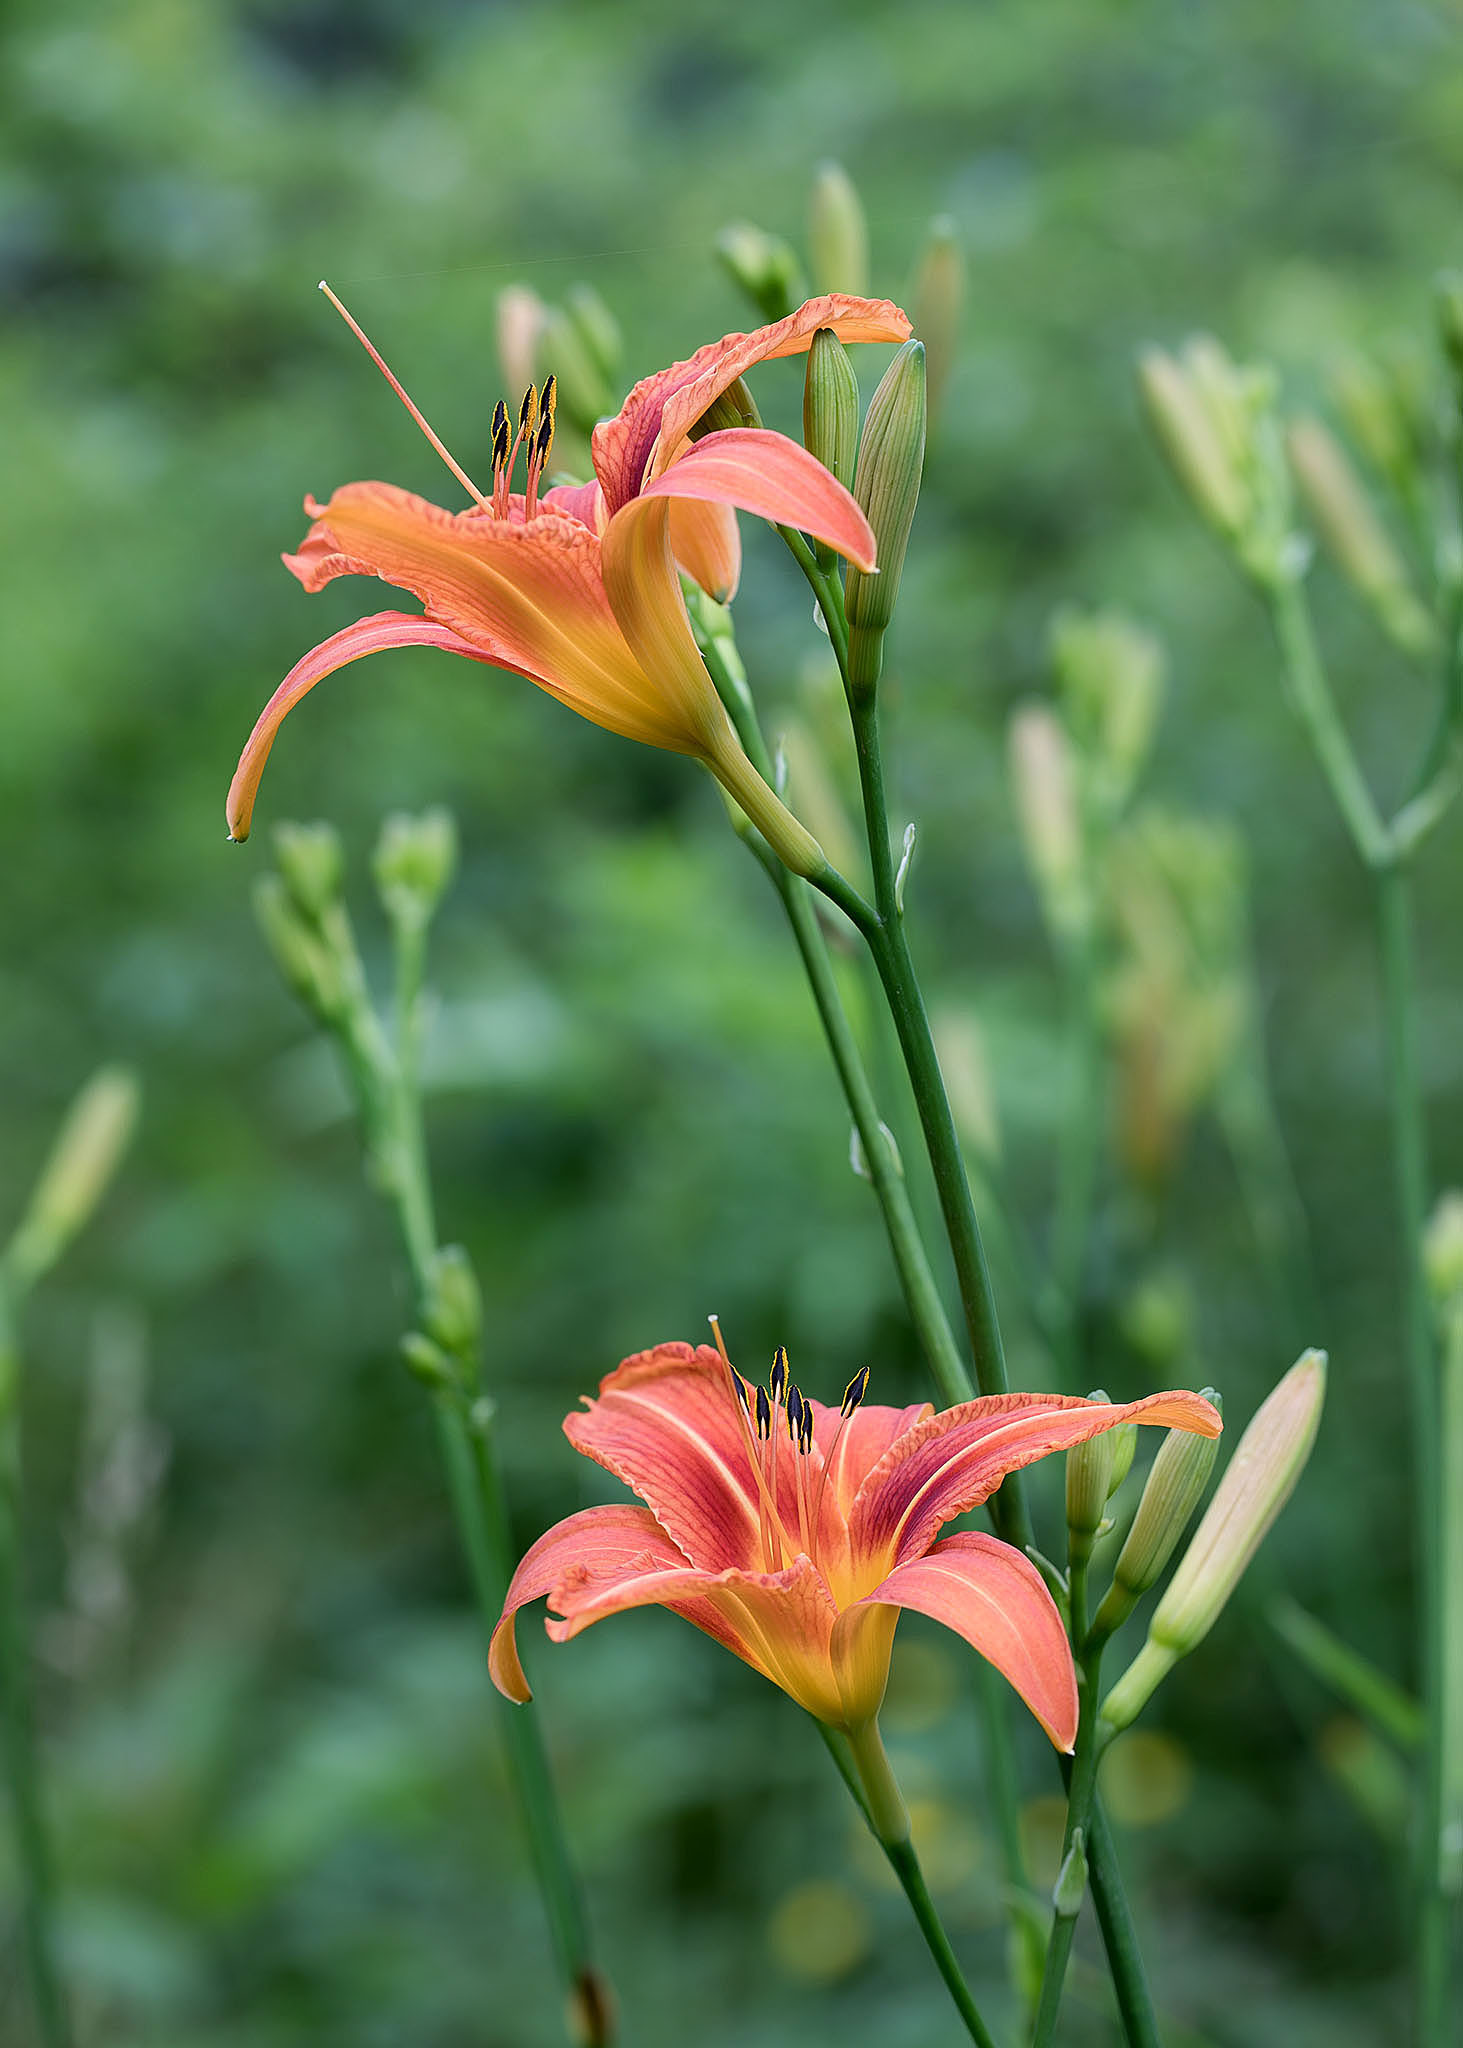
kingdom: Plantae
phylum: Tracheophyta
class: Liliopsida
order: Asparagales
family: Asphodelaceae
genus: Hemerocallis
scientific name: Hemerocallis fulva
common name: Orange day-lily
